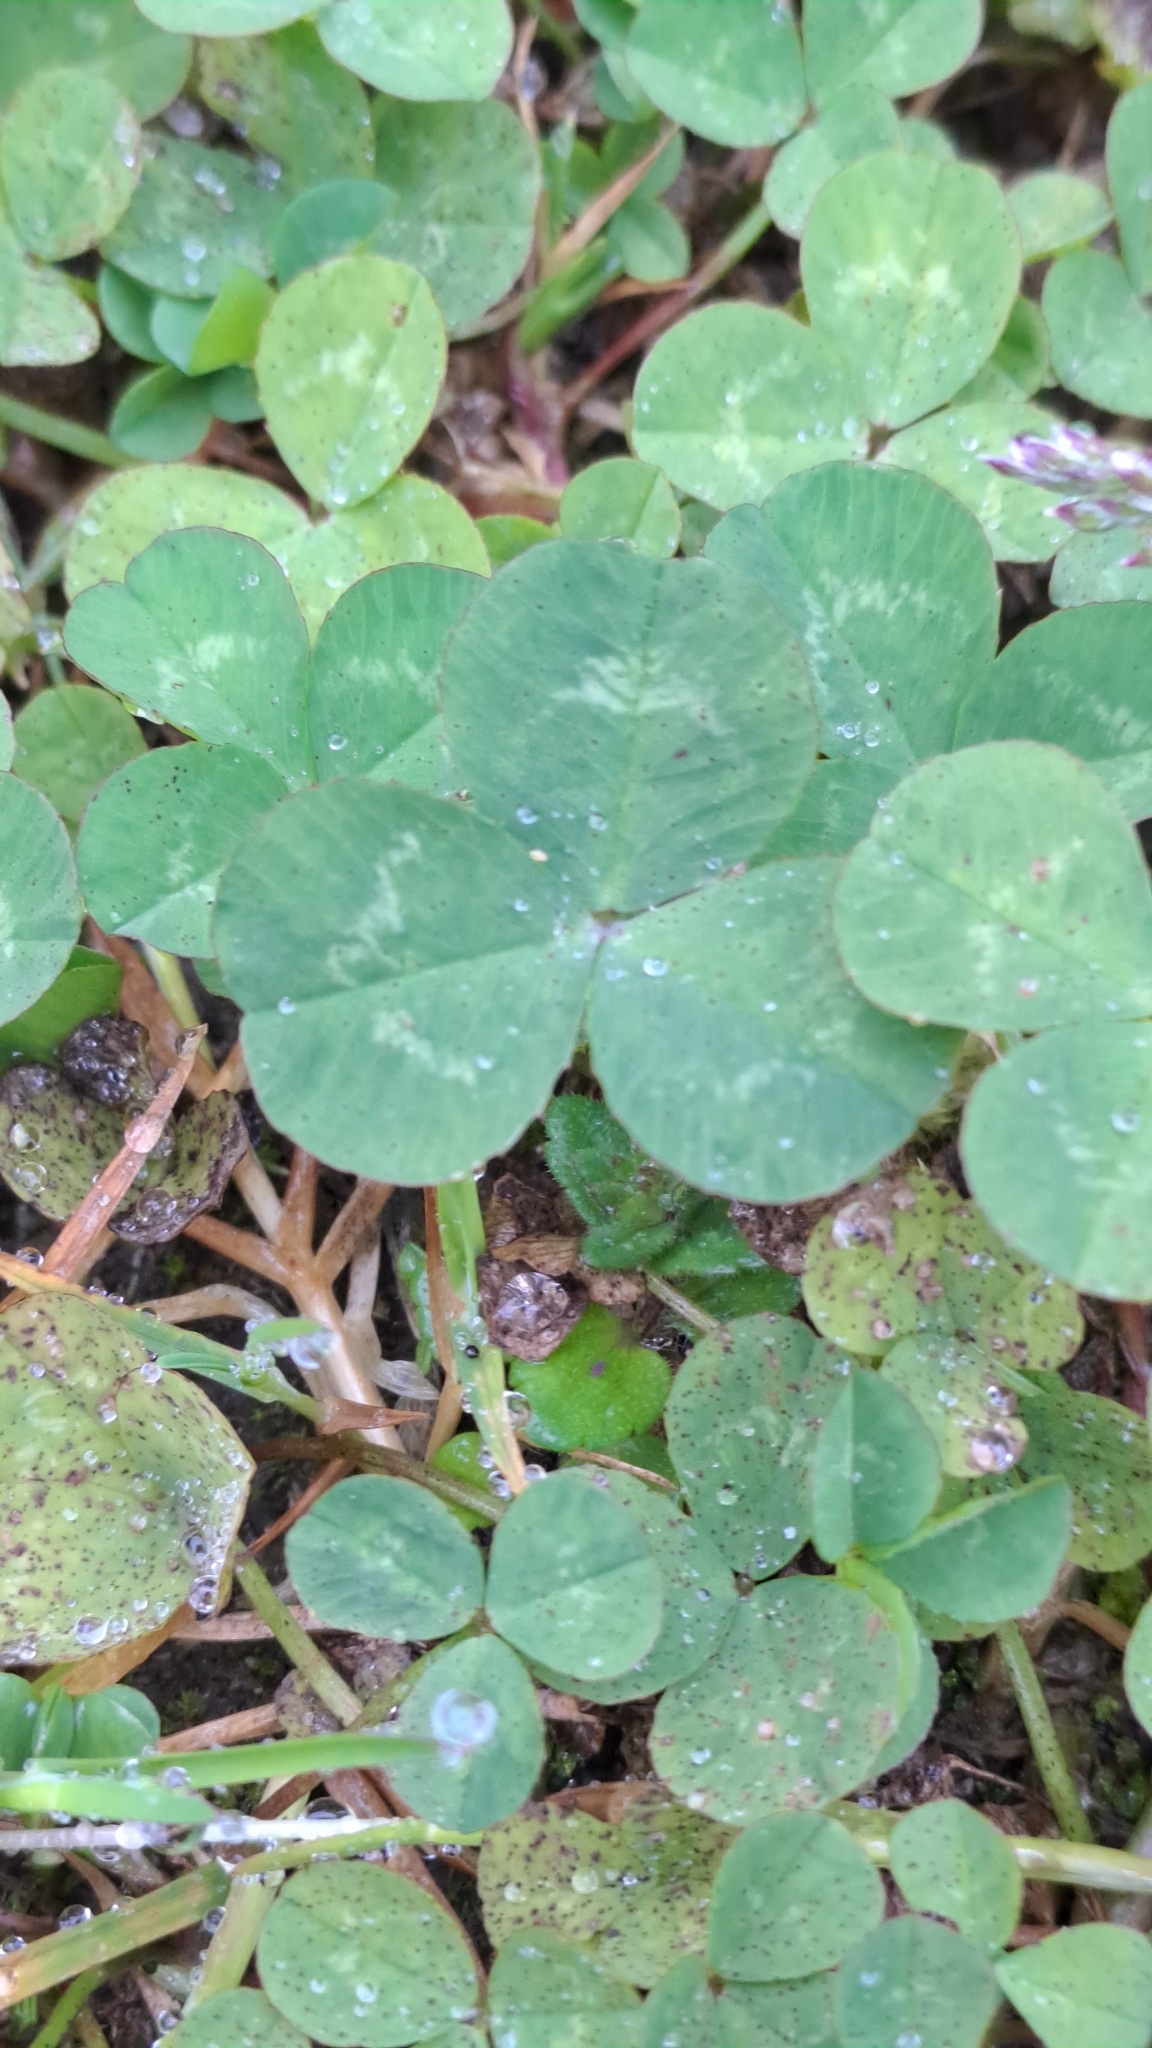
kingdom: Plantae
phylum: Tracheophyta
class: Magnoliopsida
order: Fabales
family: Fabaceae
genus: Trifolium
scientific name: Trifolium repens
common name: White clover
